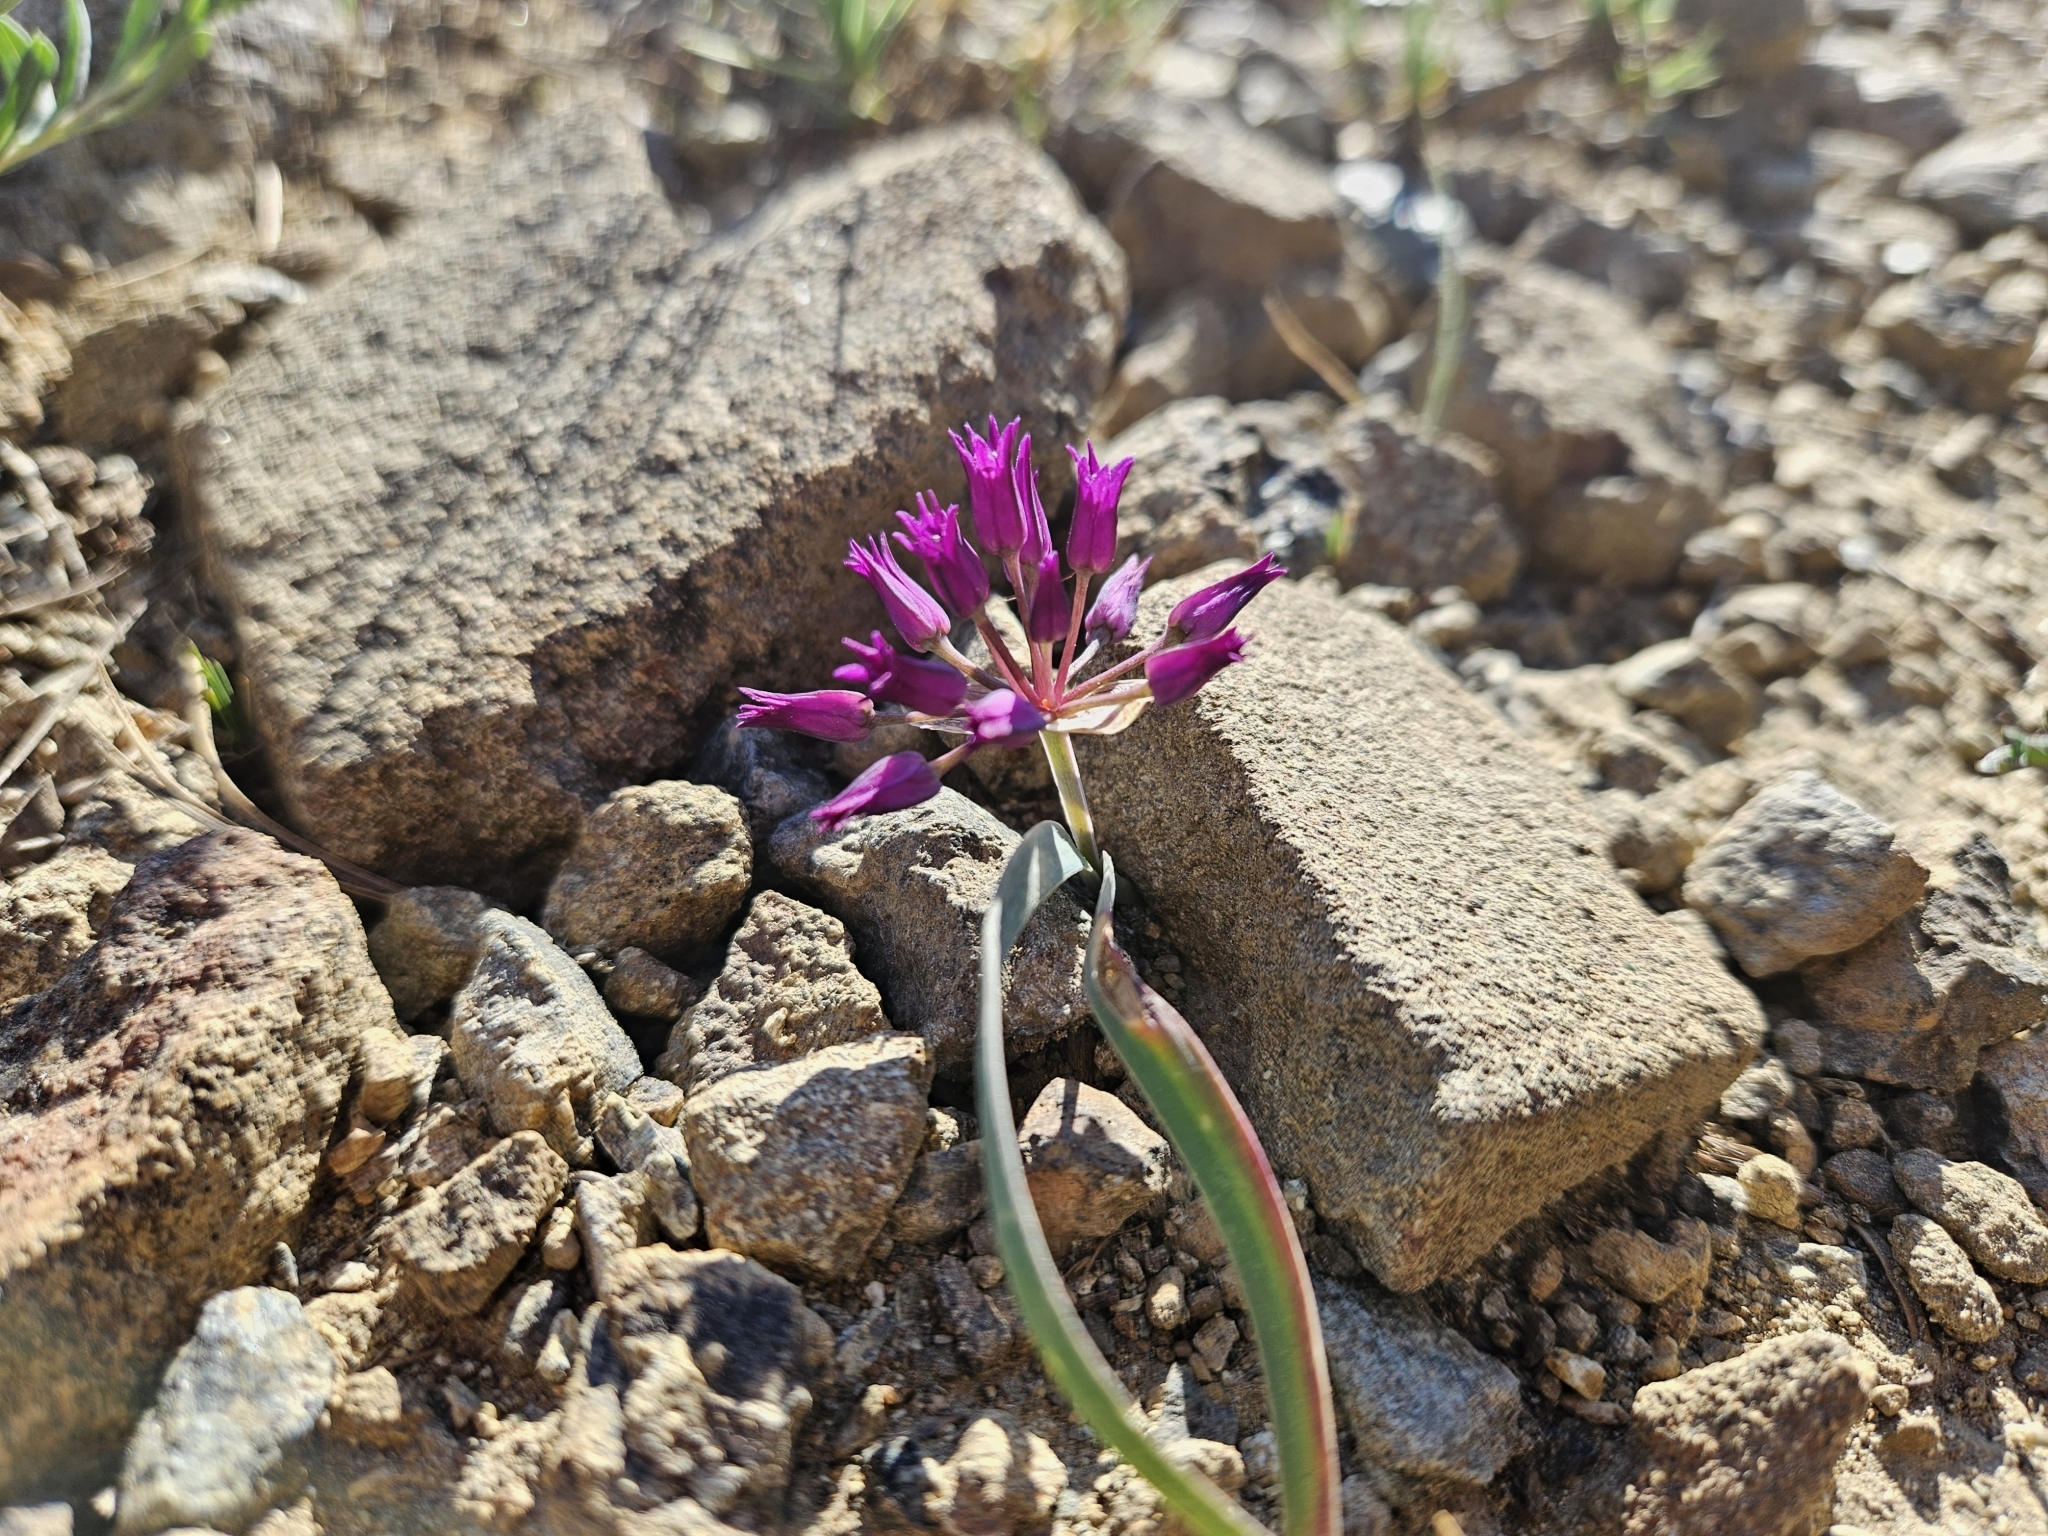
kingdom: Plantae
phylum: Tracheophyta
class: Liliopsida
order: Asparagales
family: Amaryllidaceae
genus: Allium
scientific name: Allium falcifolium
